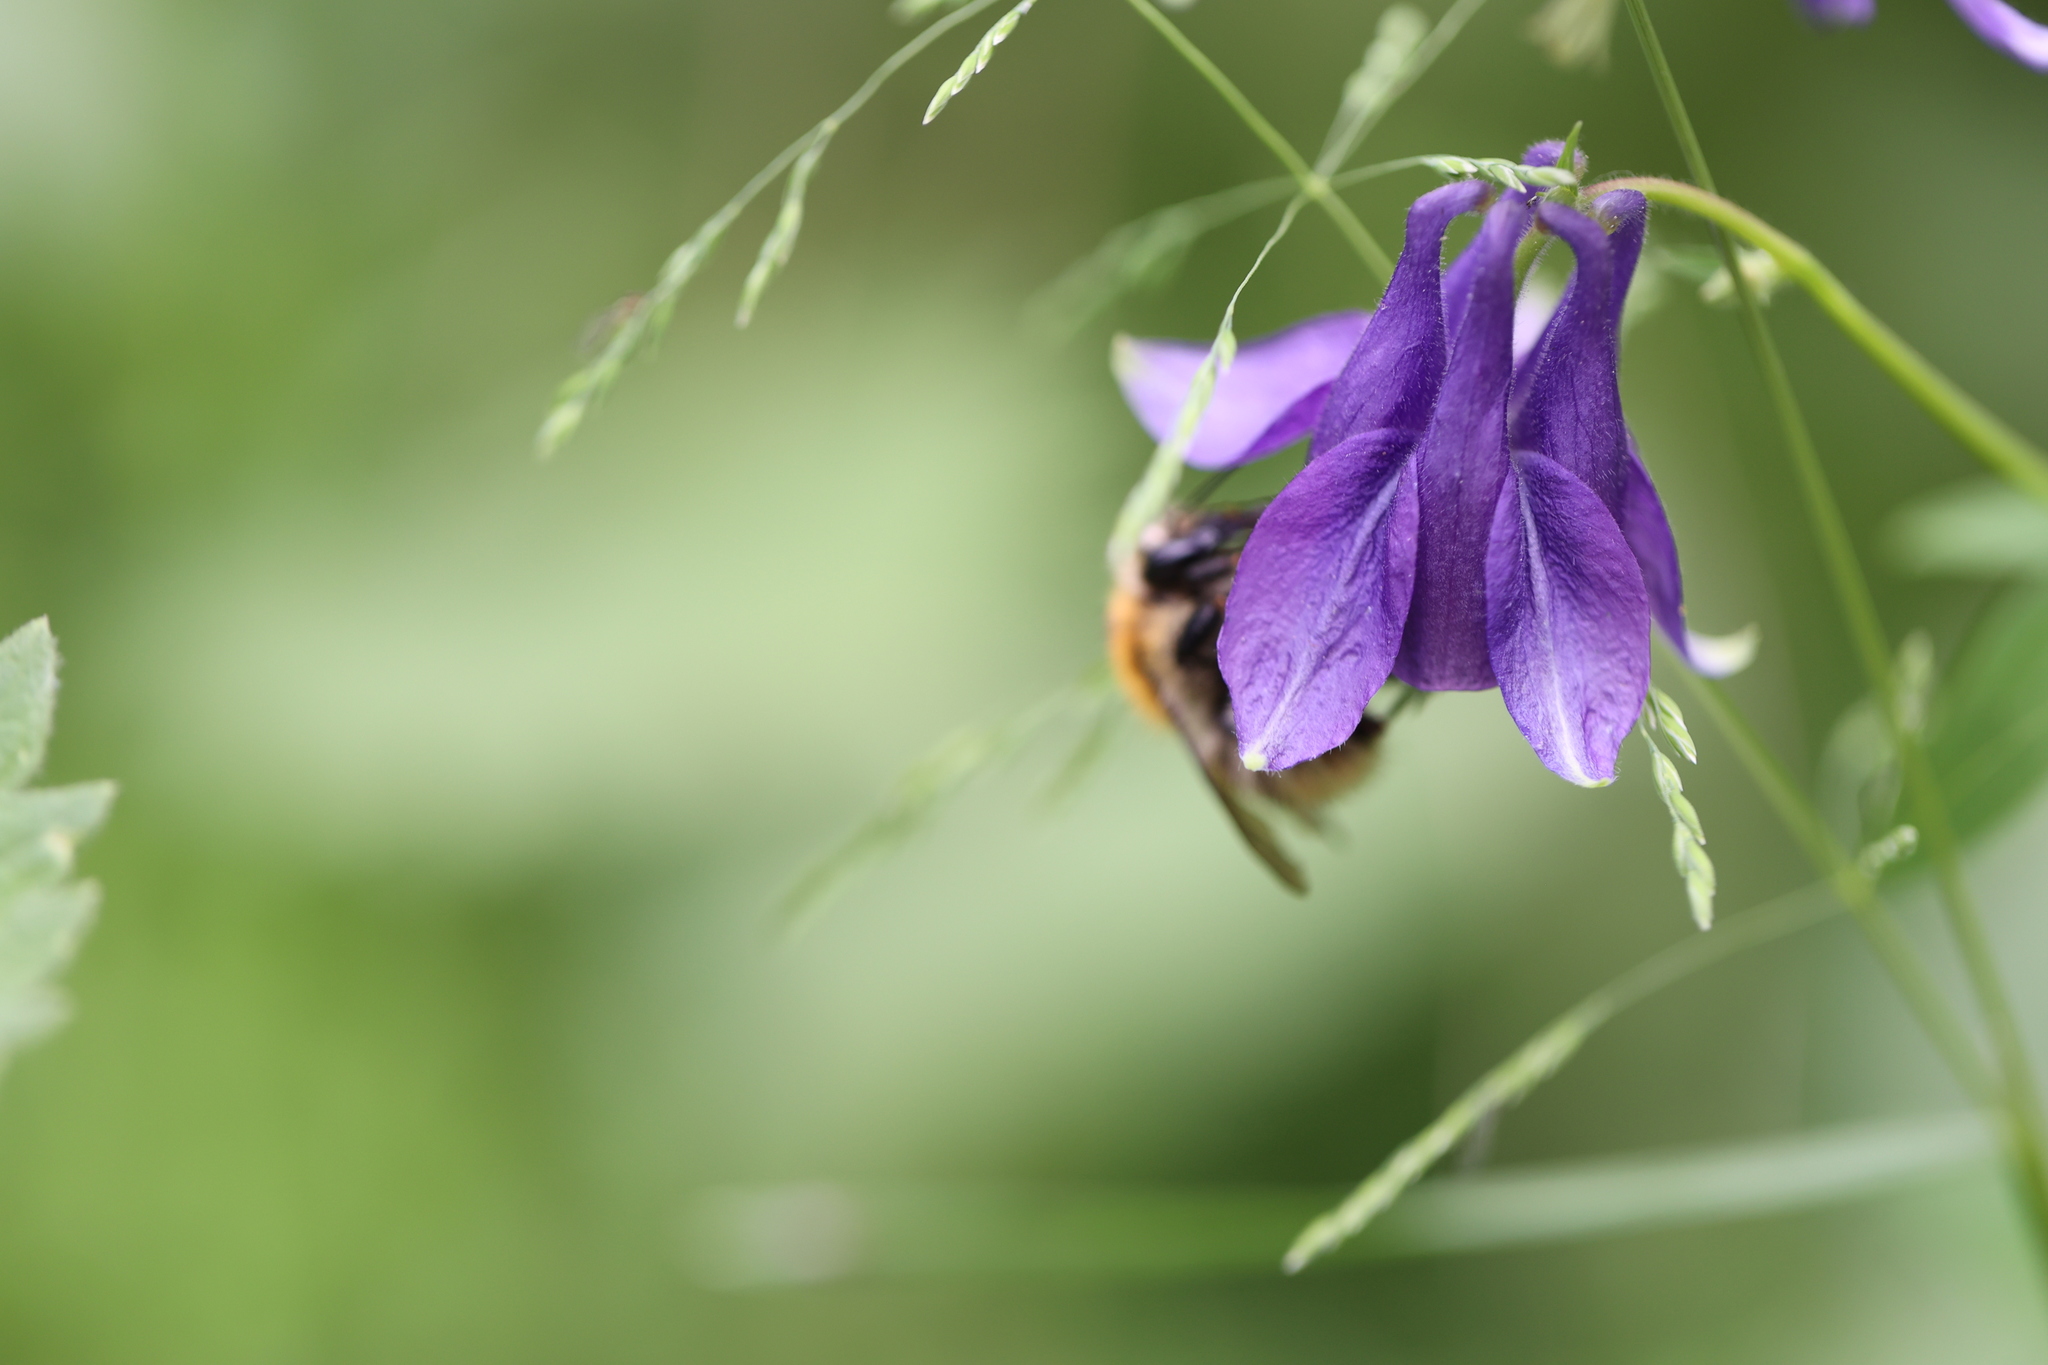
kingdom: Plantae
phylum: Tracheophyta
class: Magnoliopsida
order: Ranunculales
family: Ranunculaceae
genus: Aquilegia
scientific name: Aquilegia vulgaris
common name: Columbine
